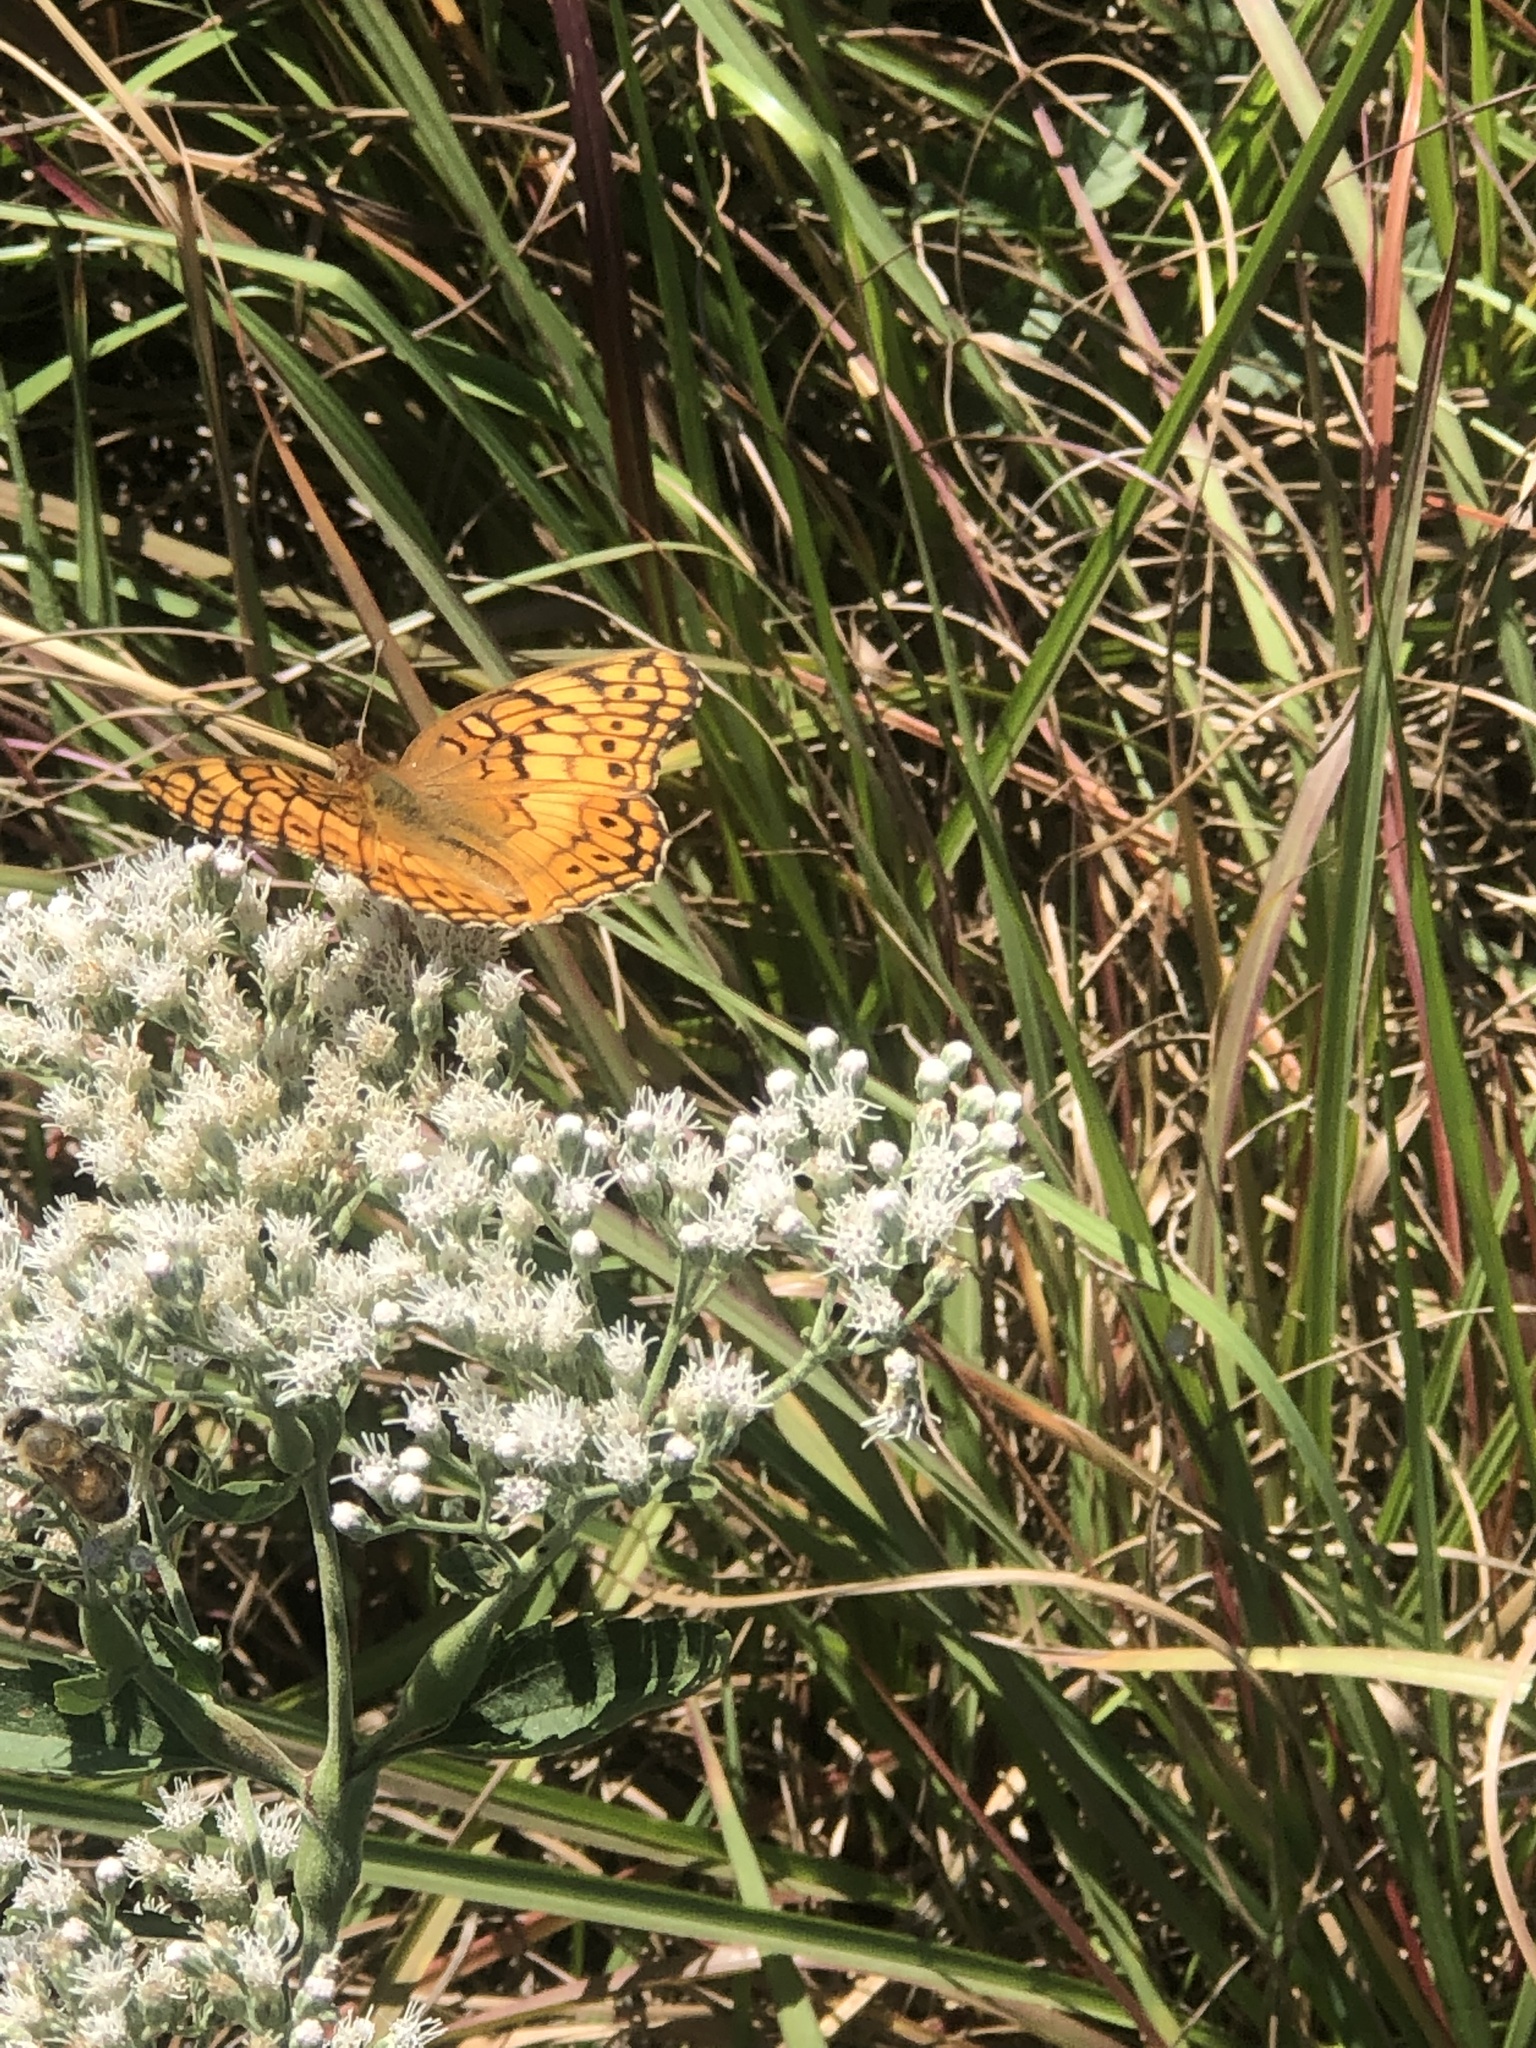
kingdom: Animalia
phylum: Arthropoda
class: Insecta
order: Lepidoptera
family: Nymphalidae
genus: Euptoieta
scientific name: Euptoieta claudia
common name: Variegated fritillary
